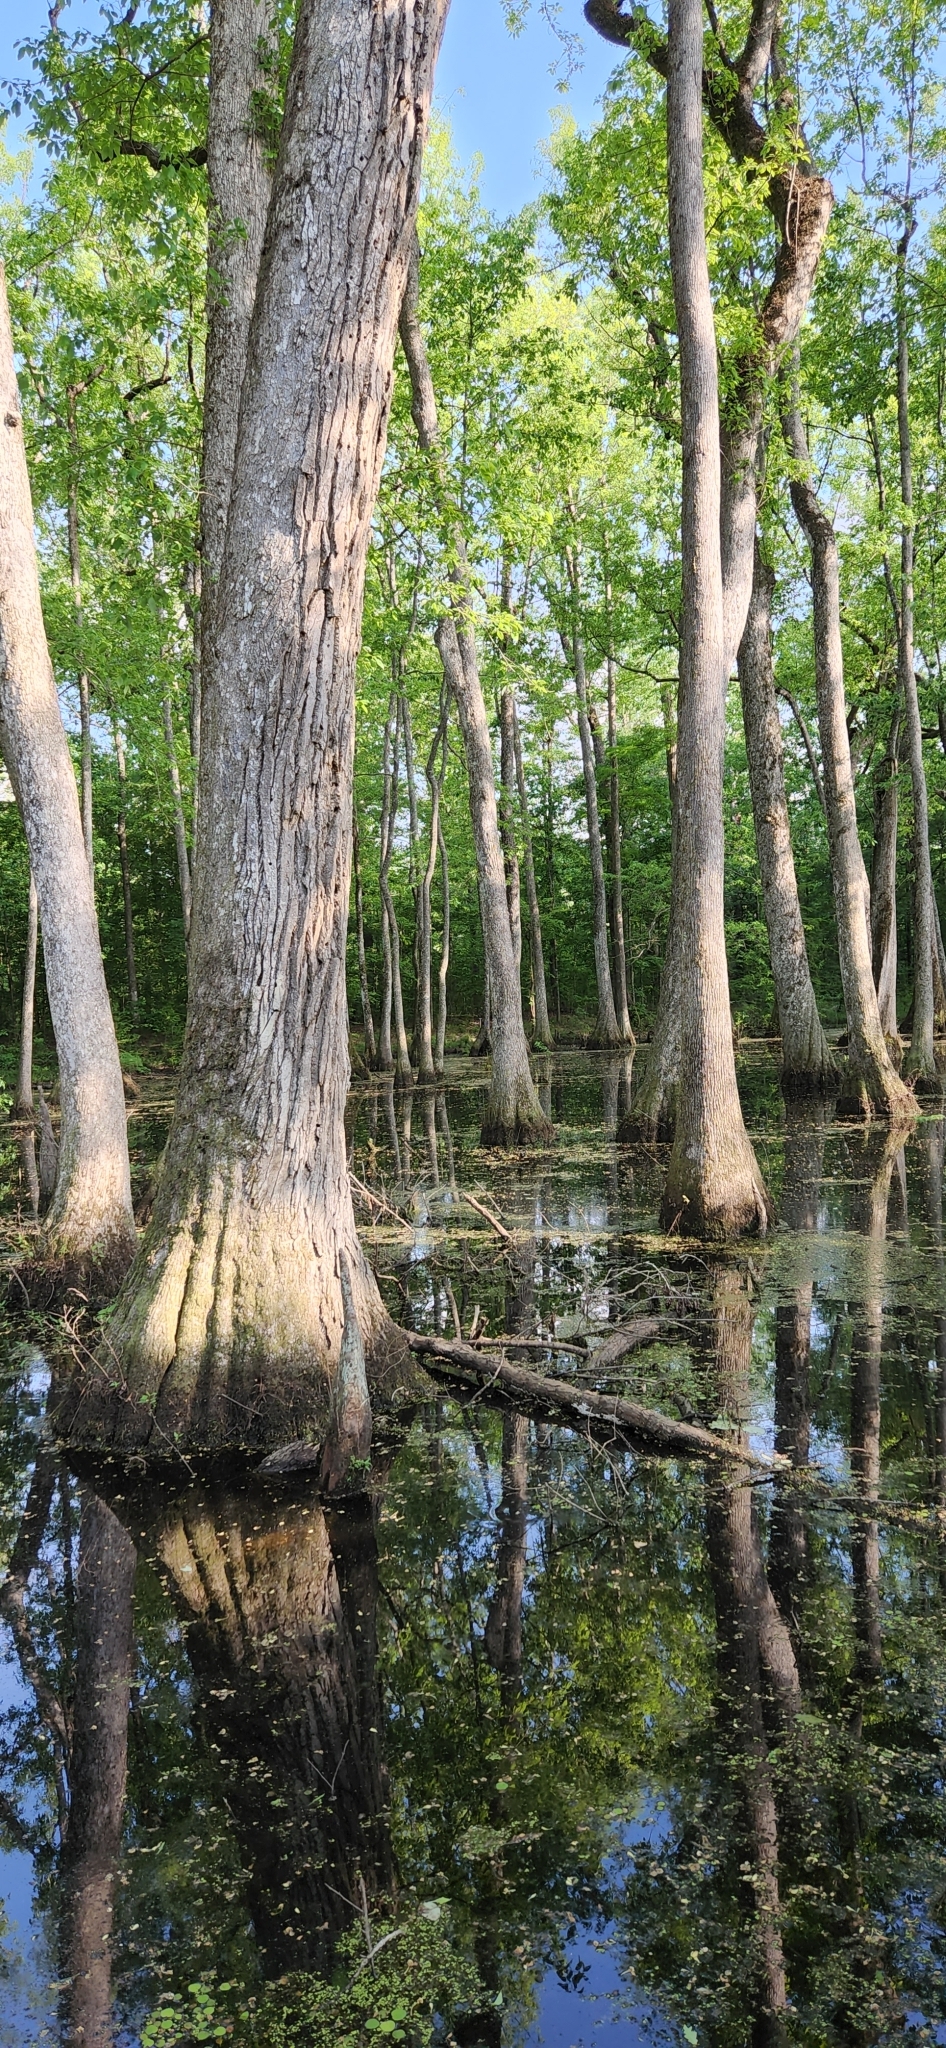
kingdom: Plantae
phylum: Tracheophyta
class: Magnoliopsida
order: Cornales
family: Nyssaceae
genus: Nyssa
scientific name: Nyssa aquatica
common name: Swamp tupelo
